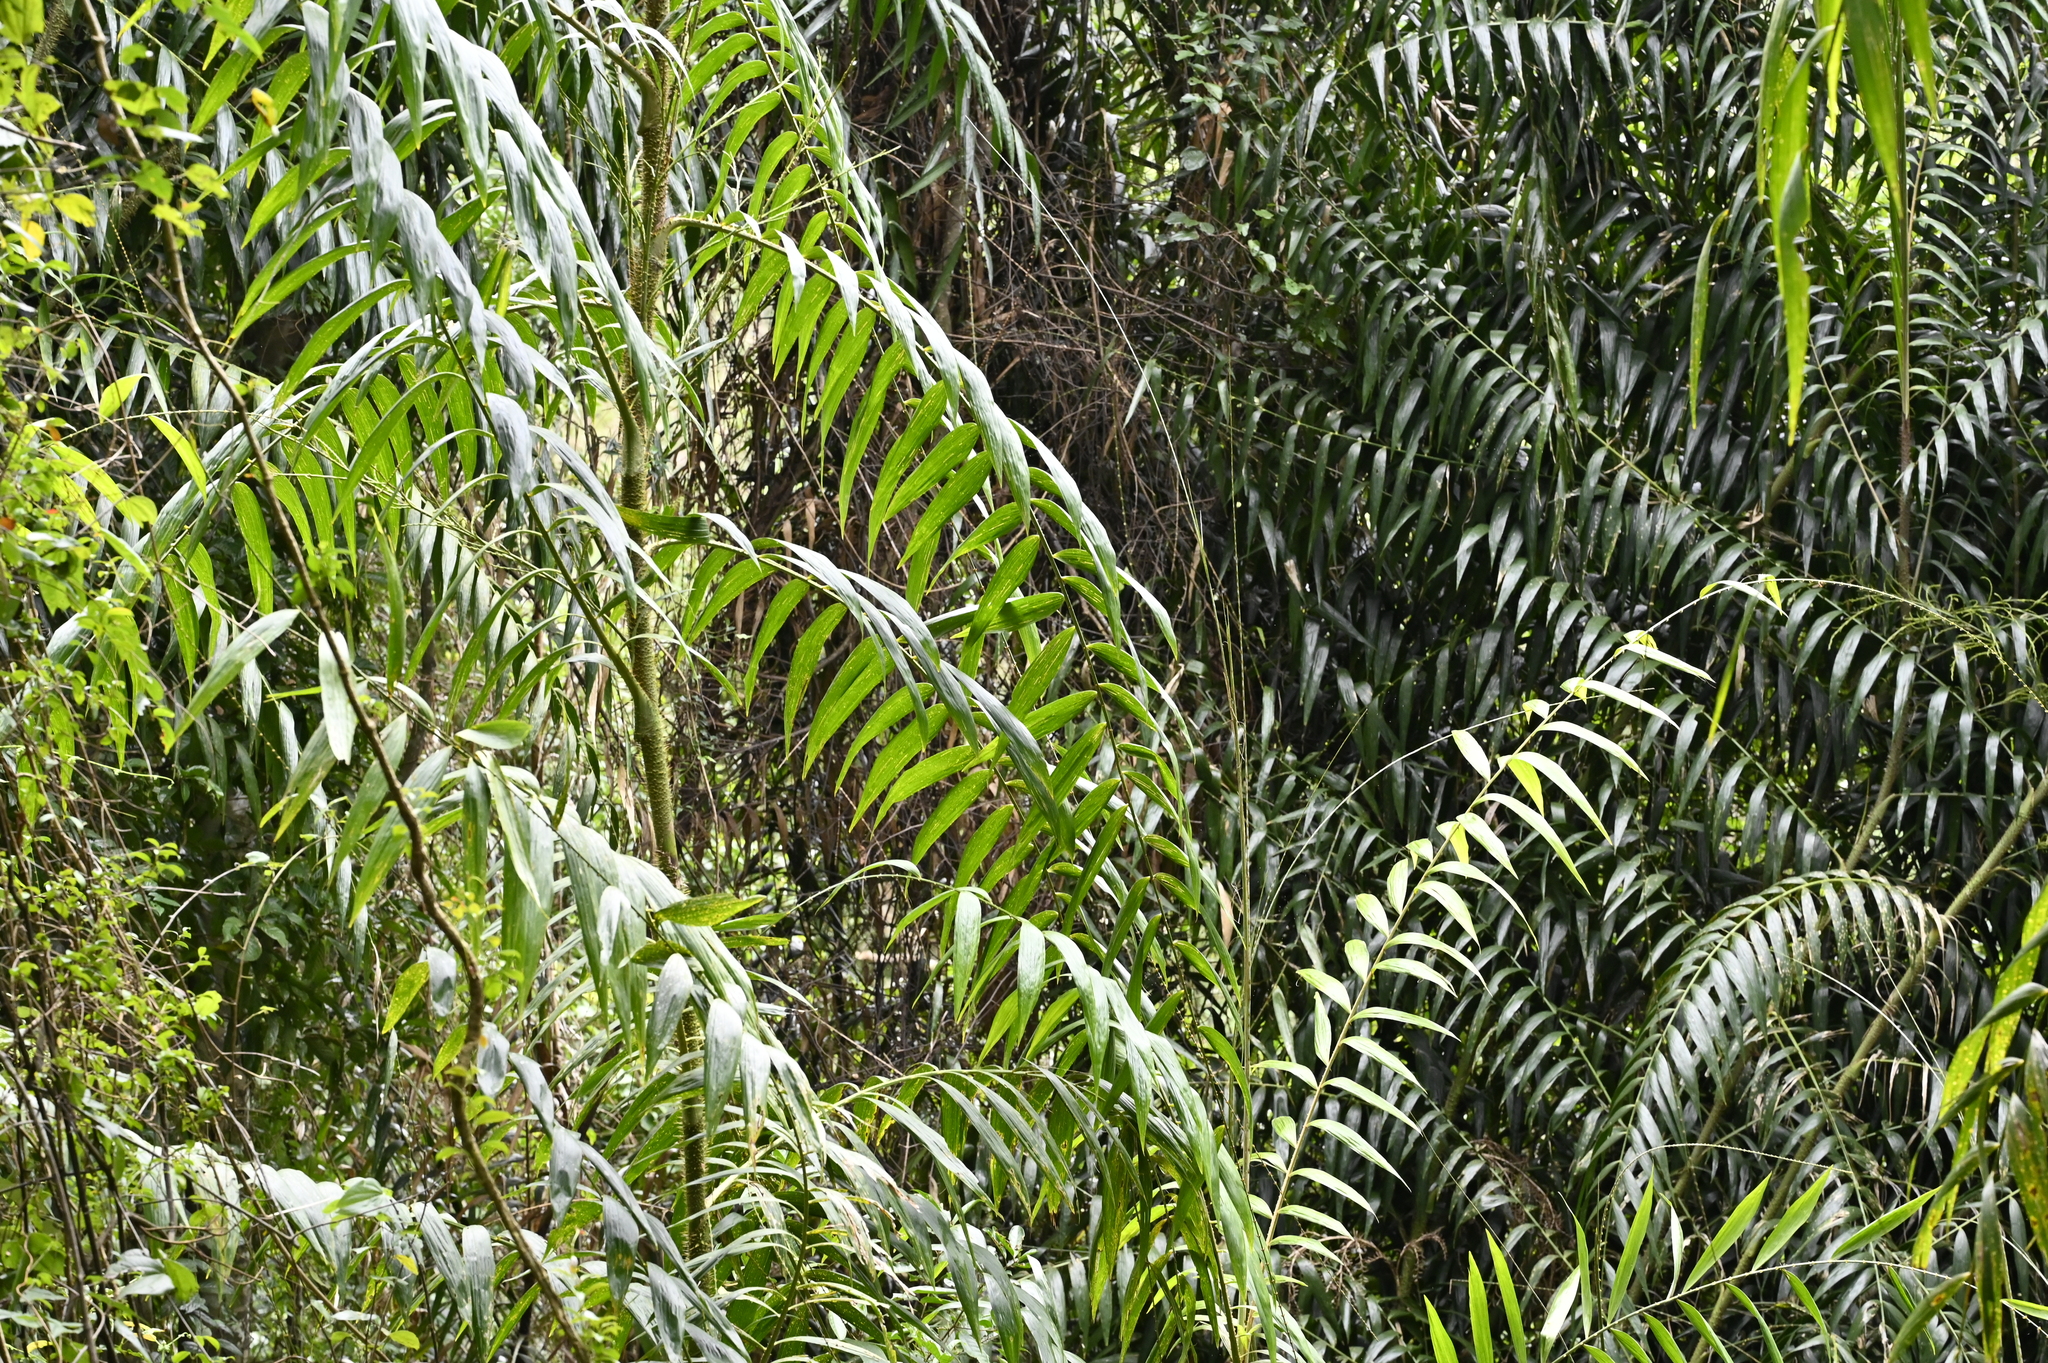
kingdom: Plantae
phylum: Tracheophyta
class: Liliopsida
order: Arecales
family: Arecaceae
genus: Calamus
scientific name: Calamus formosanus
